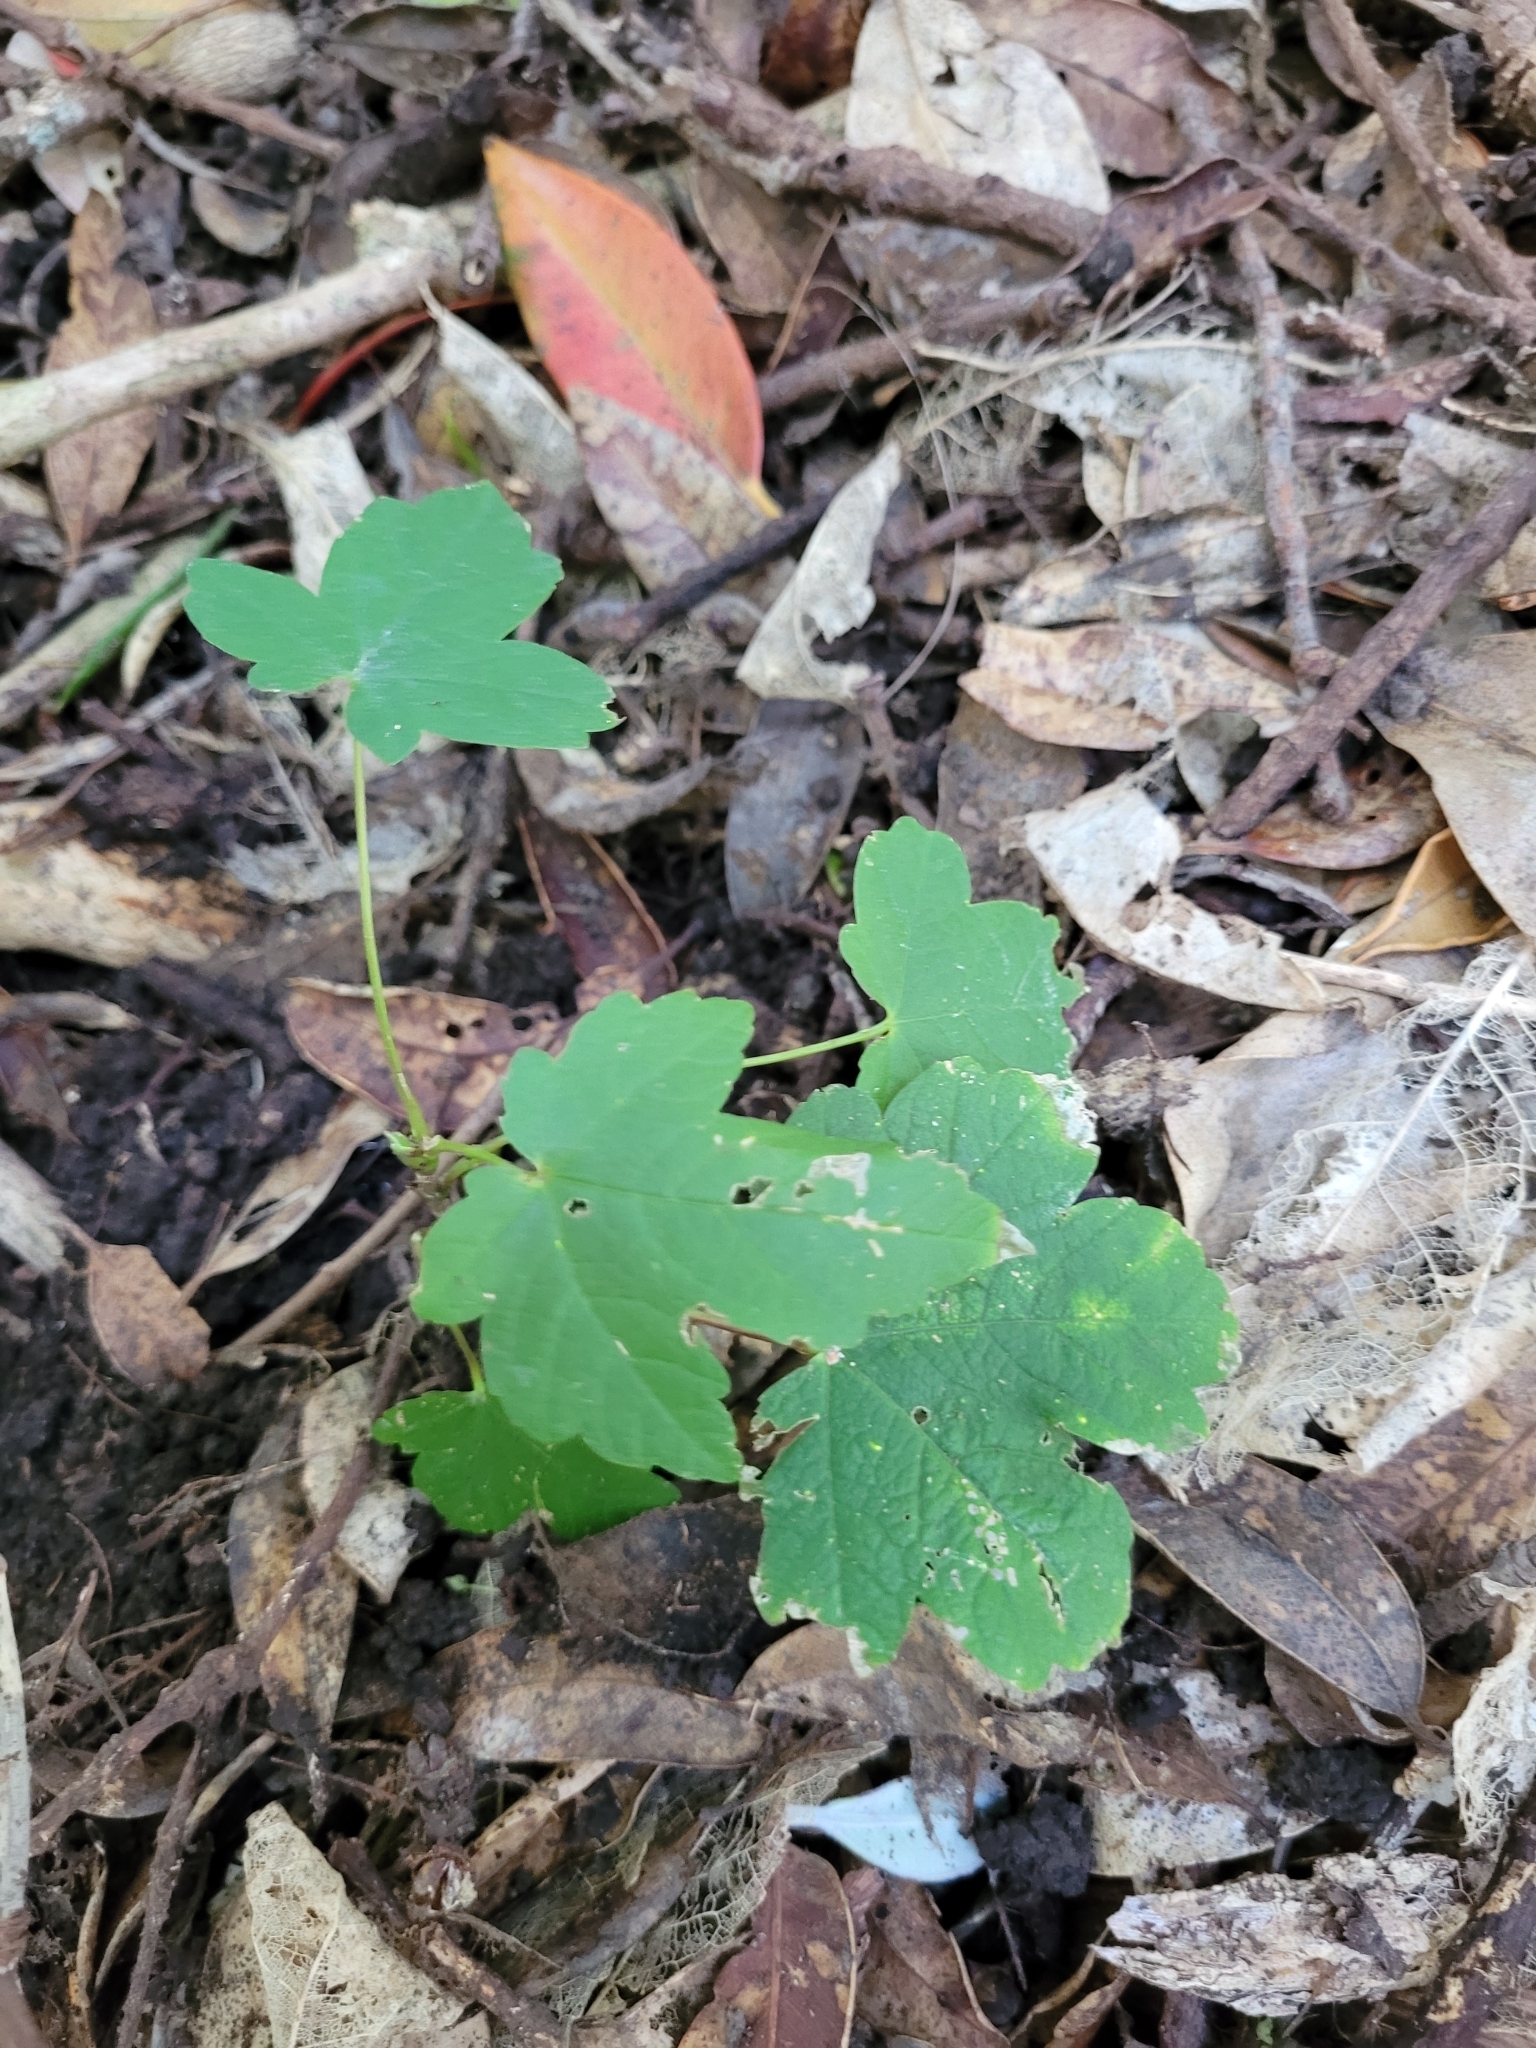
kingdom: Plantae
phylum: Tracheophyta
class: Magnoliopsida
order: Sapindales
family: Sapindaceae
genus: Acer
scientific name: Acer pseudoplatanus
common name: Sycamore
